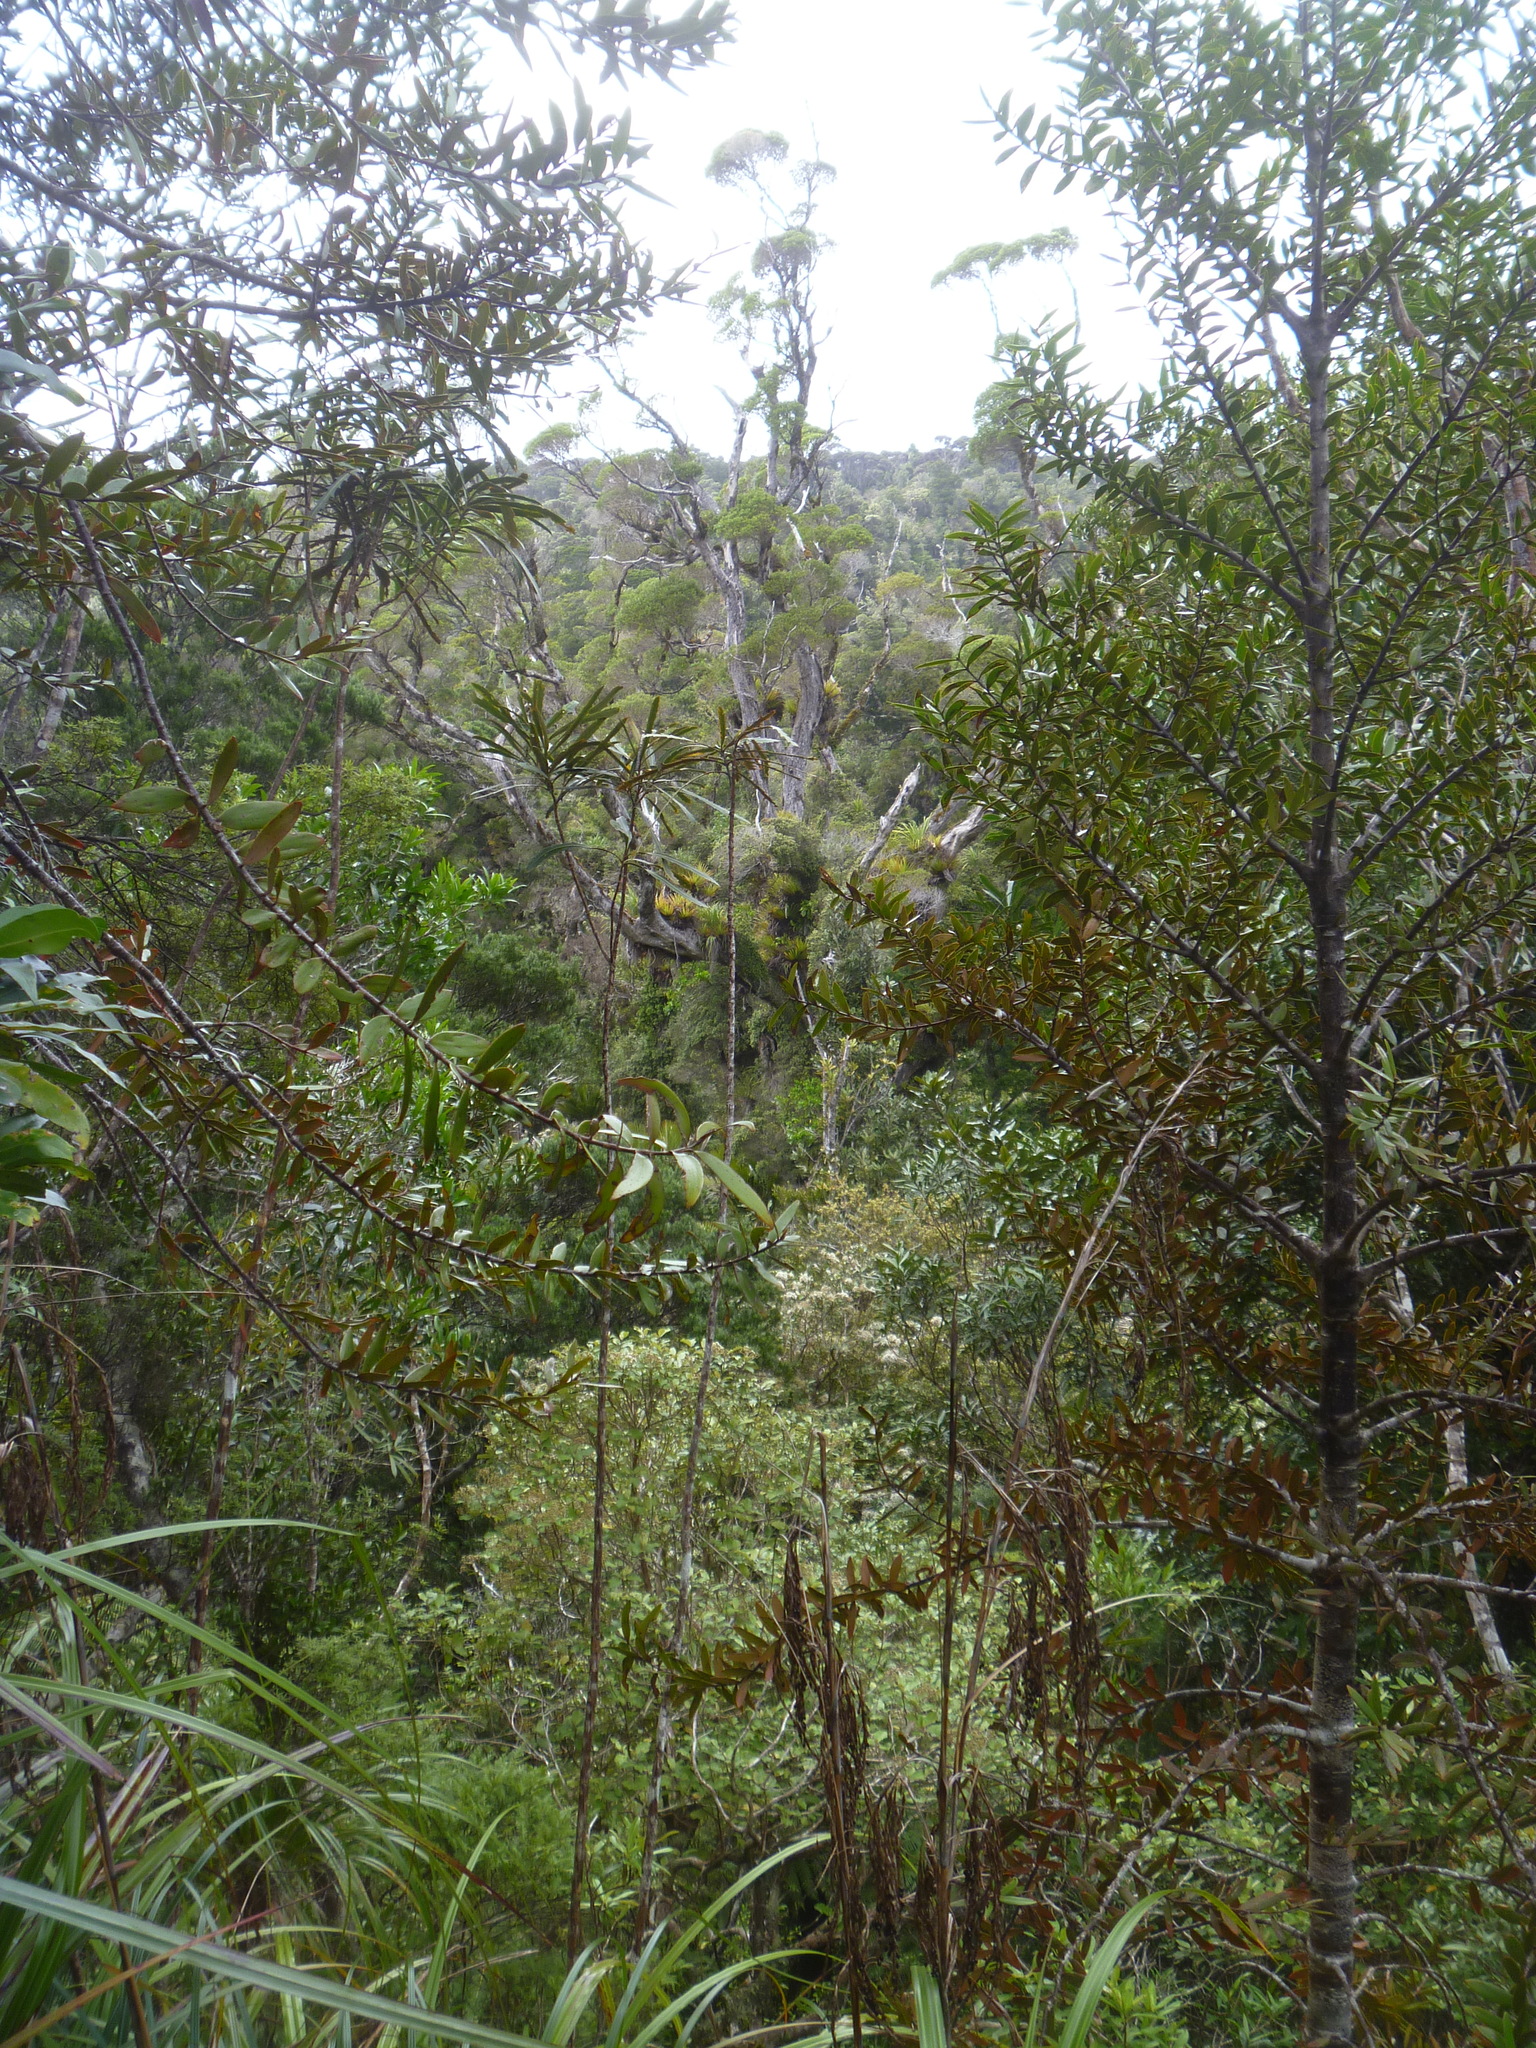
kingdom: Plantae
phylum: Tracheophyta
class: Magnoliopsida
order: Myrtales
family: Myrtaceae
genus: Metrosideros
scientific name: Metrosideros robusta
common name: Northern rata
